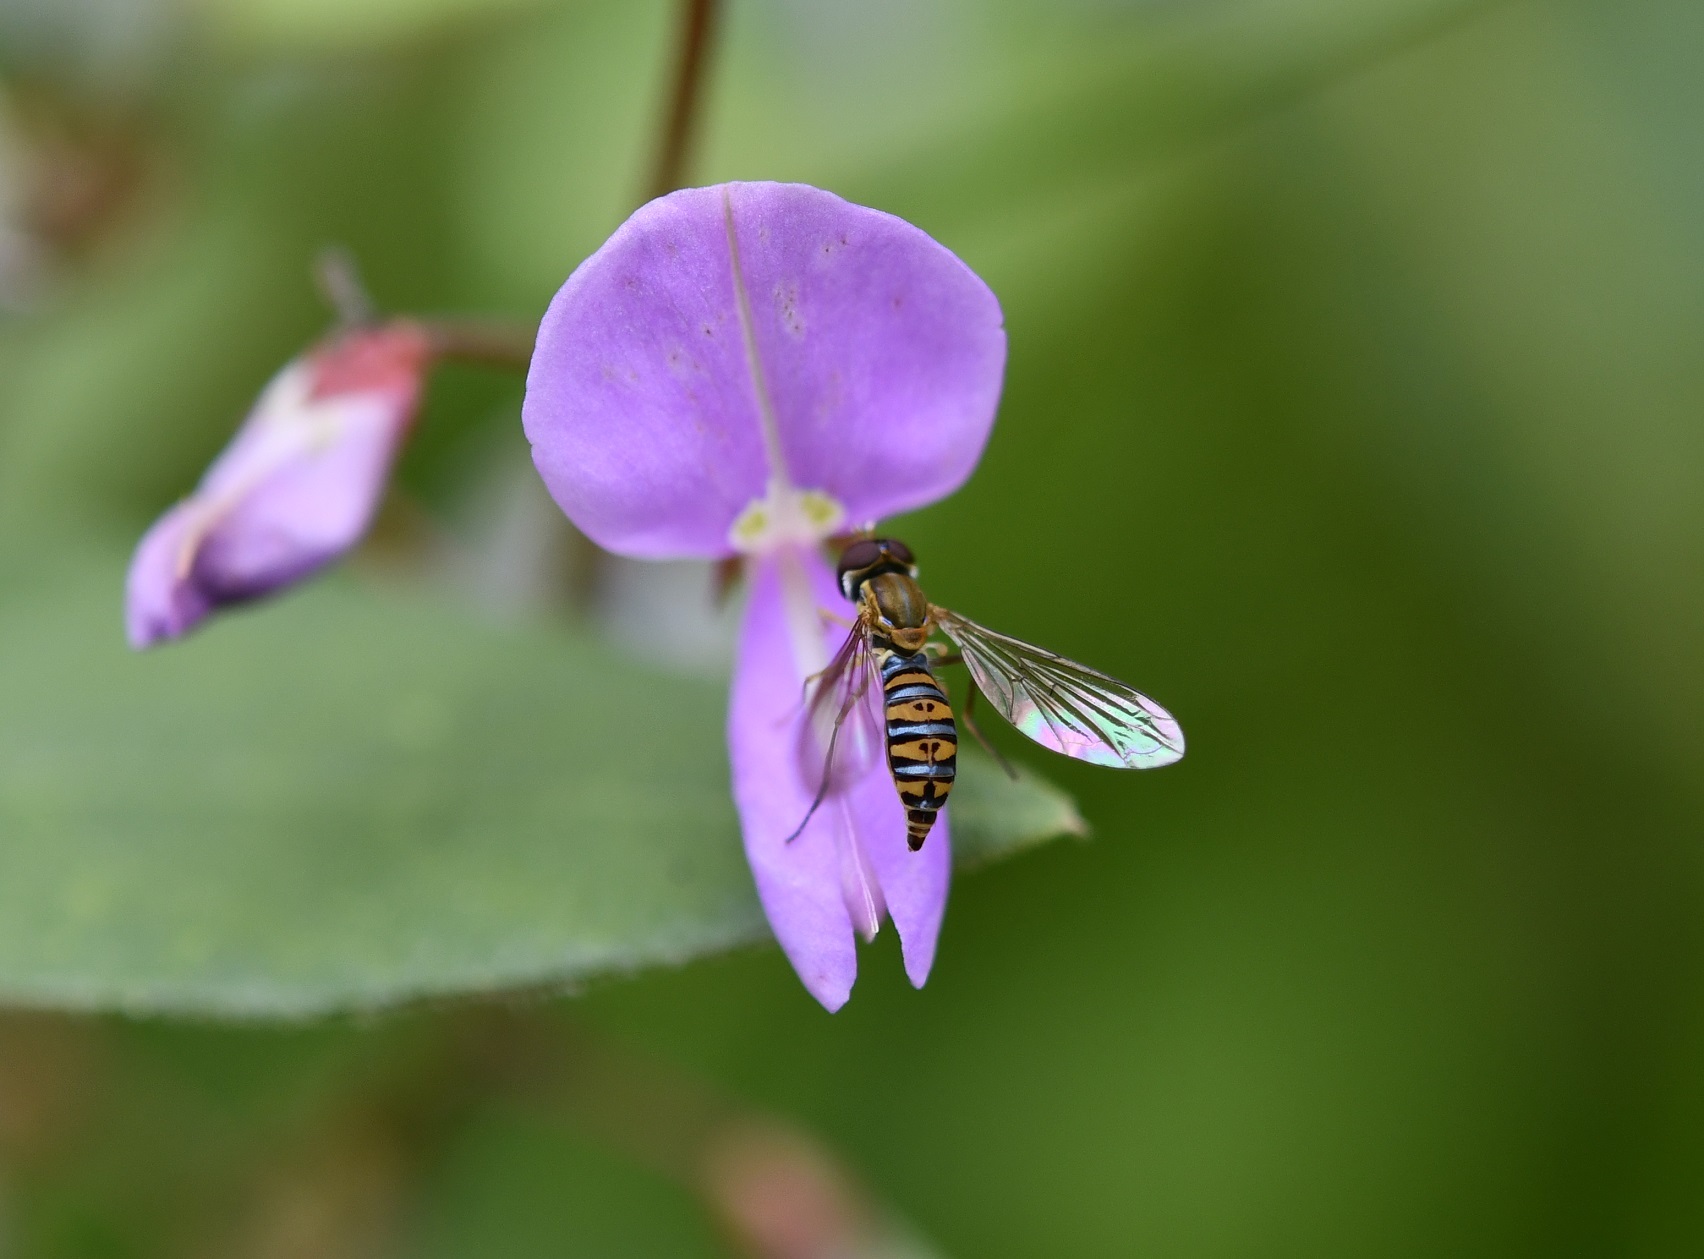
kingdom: Animalia
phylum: Arthropoda
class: Insecta
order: Diptera
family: Syrphidae
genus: Toxomerus
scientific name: Toxomerus mutuus
